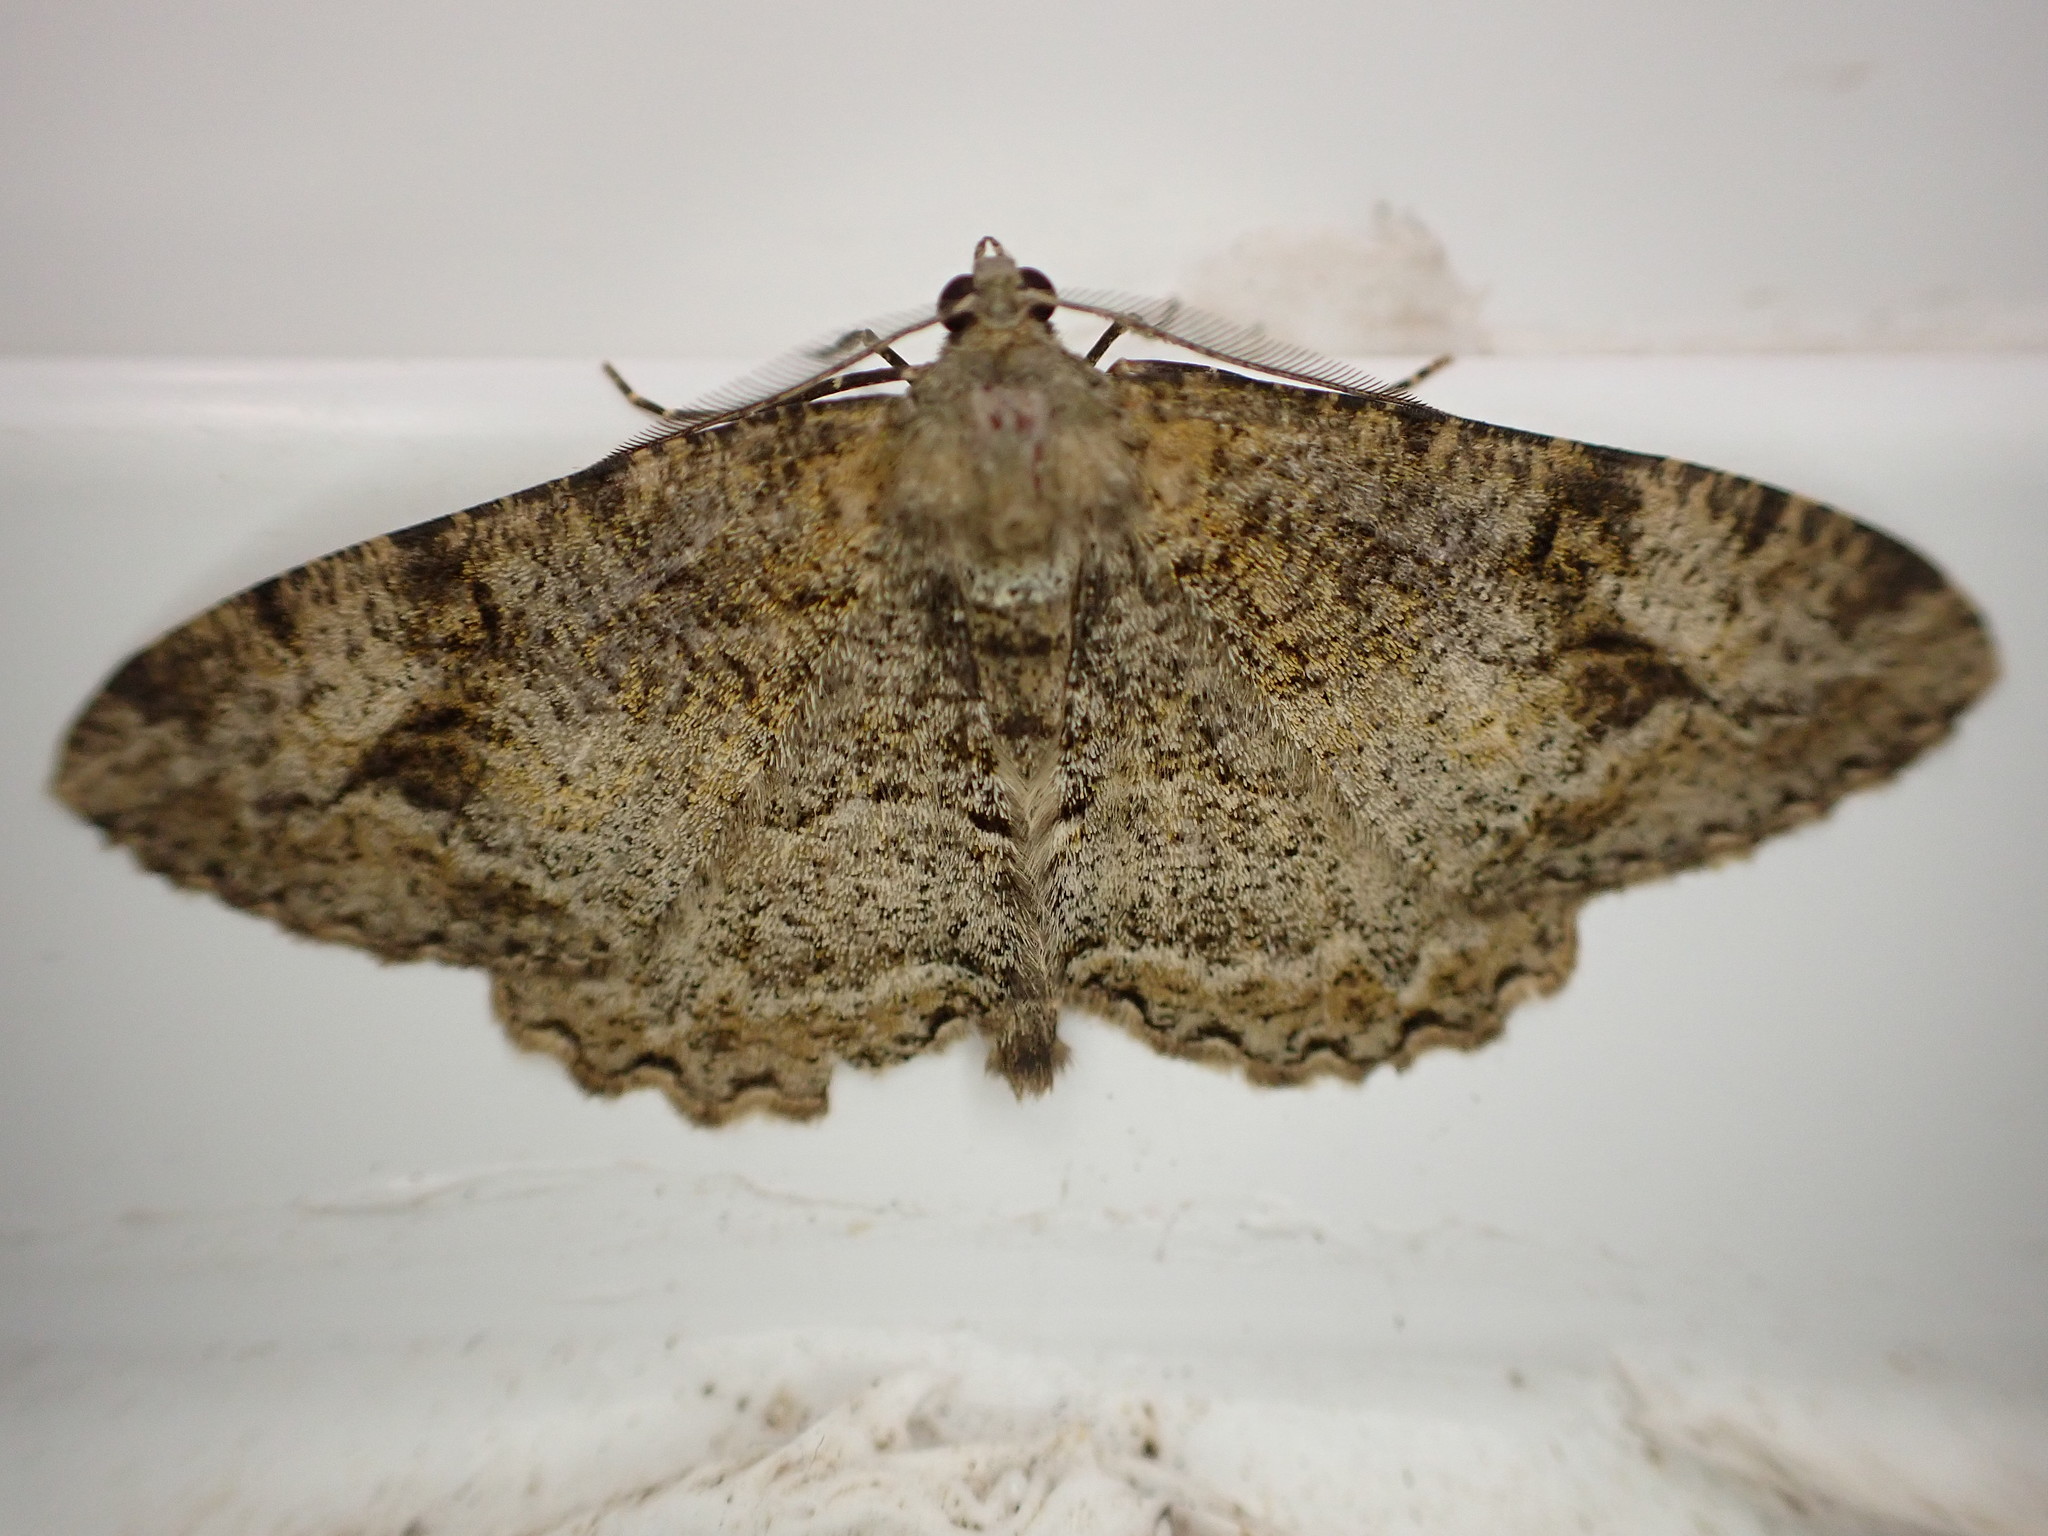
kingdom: Animalia
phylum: Arthropoda
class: Insecta
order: Lepidoptera
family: Geometridae
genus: Alcis
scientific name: Alcis repandata
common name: Mottled beauty
